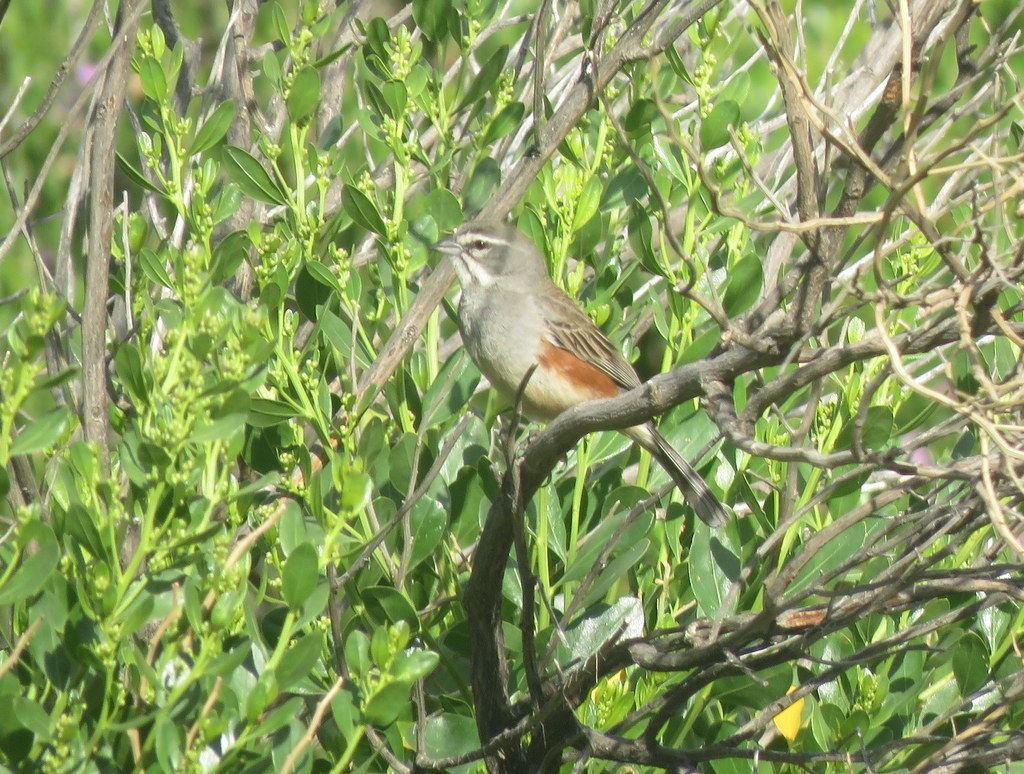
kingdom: Animalia
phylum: Chordata
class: Aves
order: Passeriformes
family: Thraupidae
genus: Poospizopsis
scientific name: Poospizopsis hypocondria
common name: Rufous-sided warbling-finch
